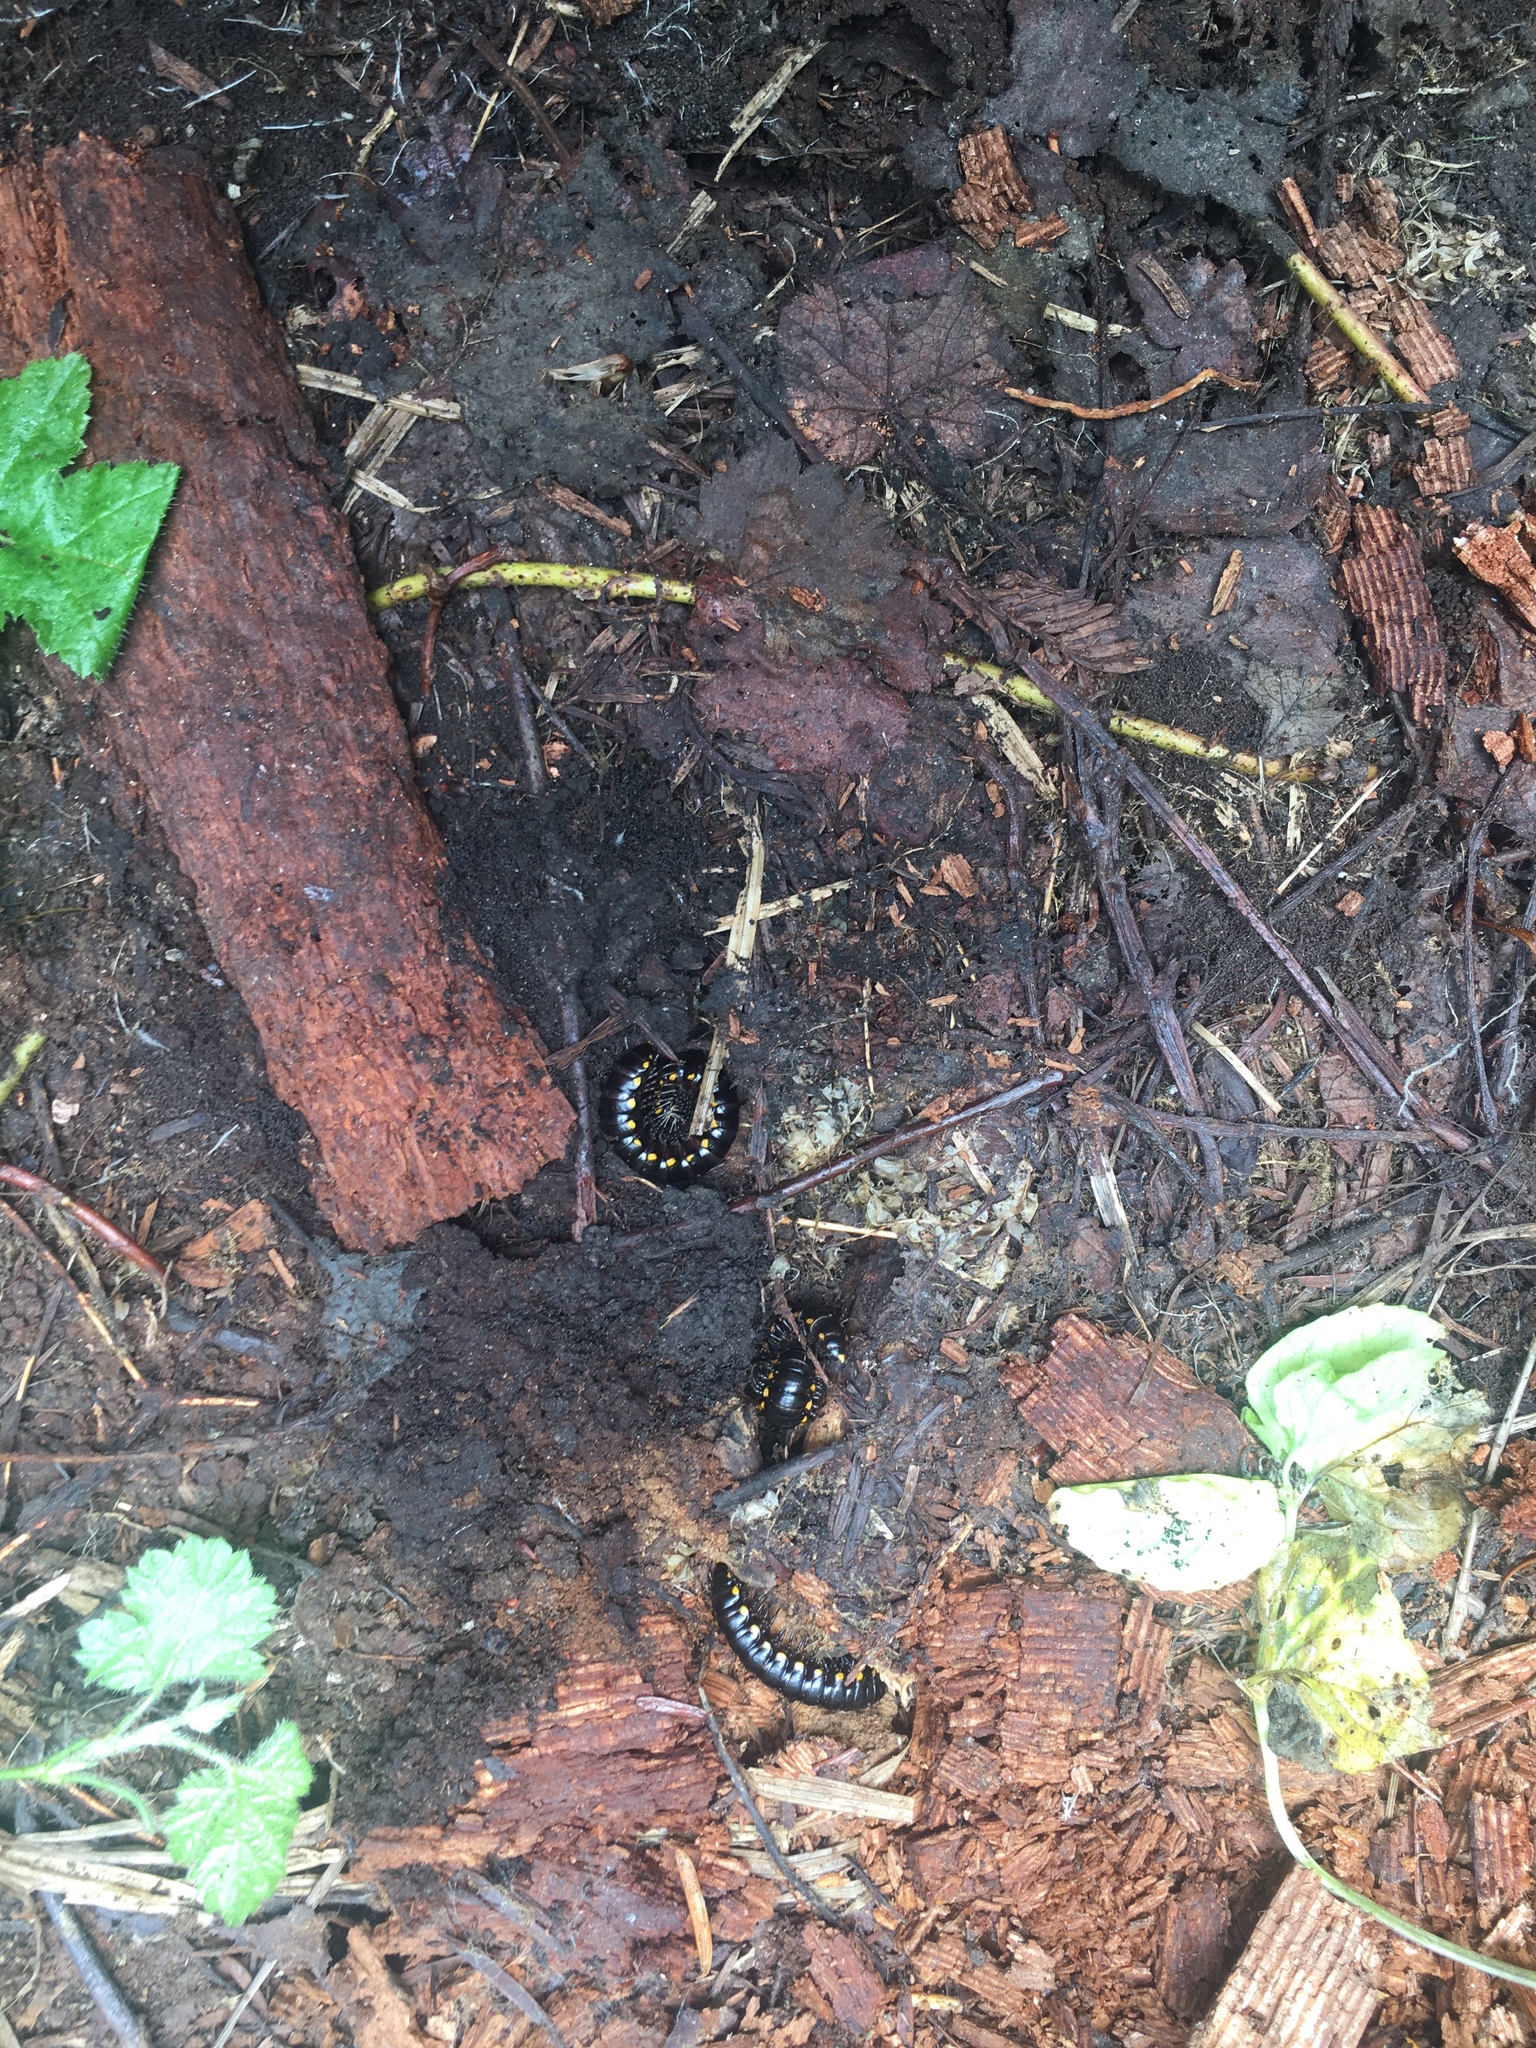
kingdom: Animalia
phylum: Arthropoda
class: Diplopoda
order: Polydesmida
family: Xystodesmidae
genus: Harpaphe
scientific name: Harpaphe
